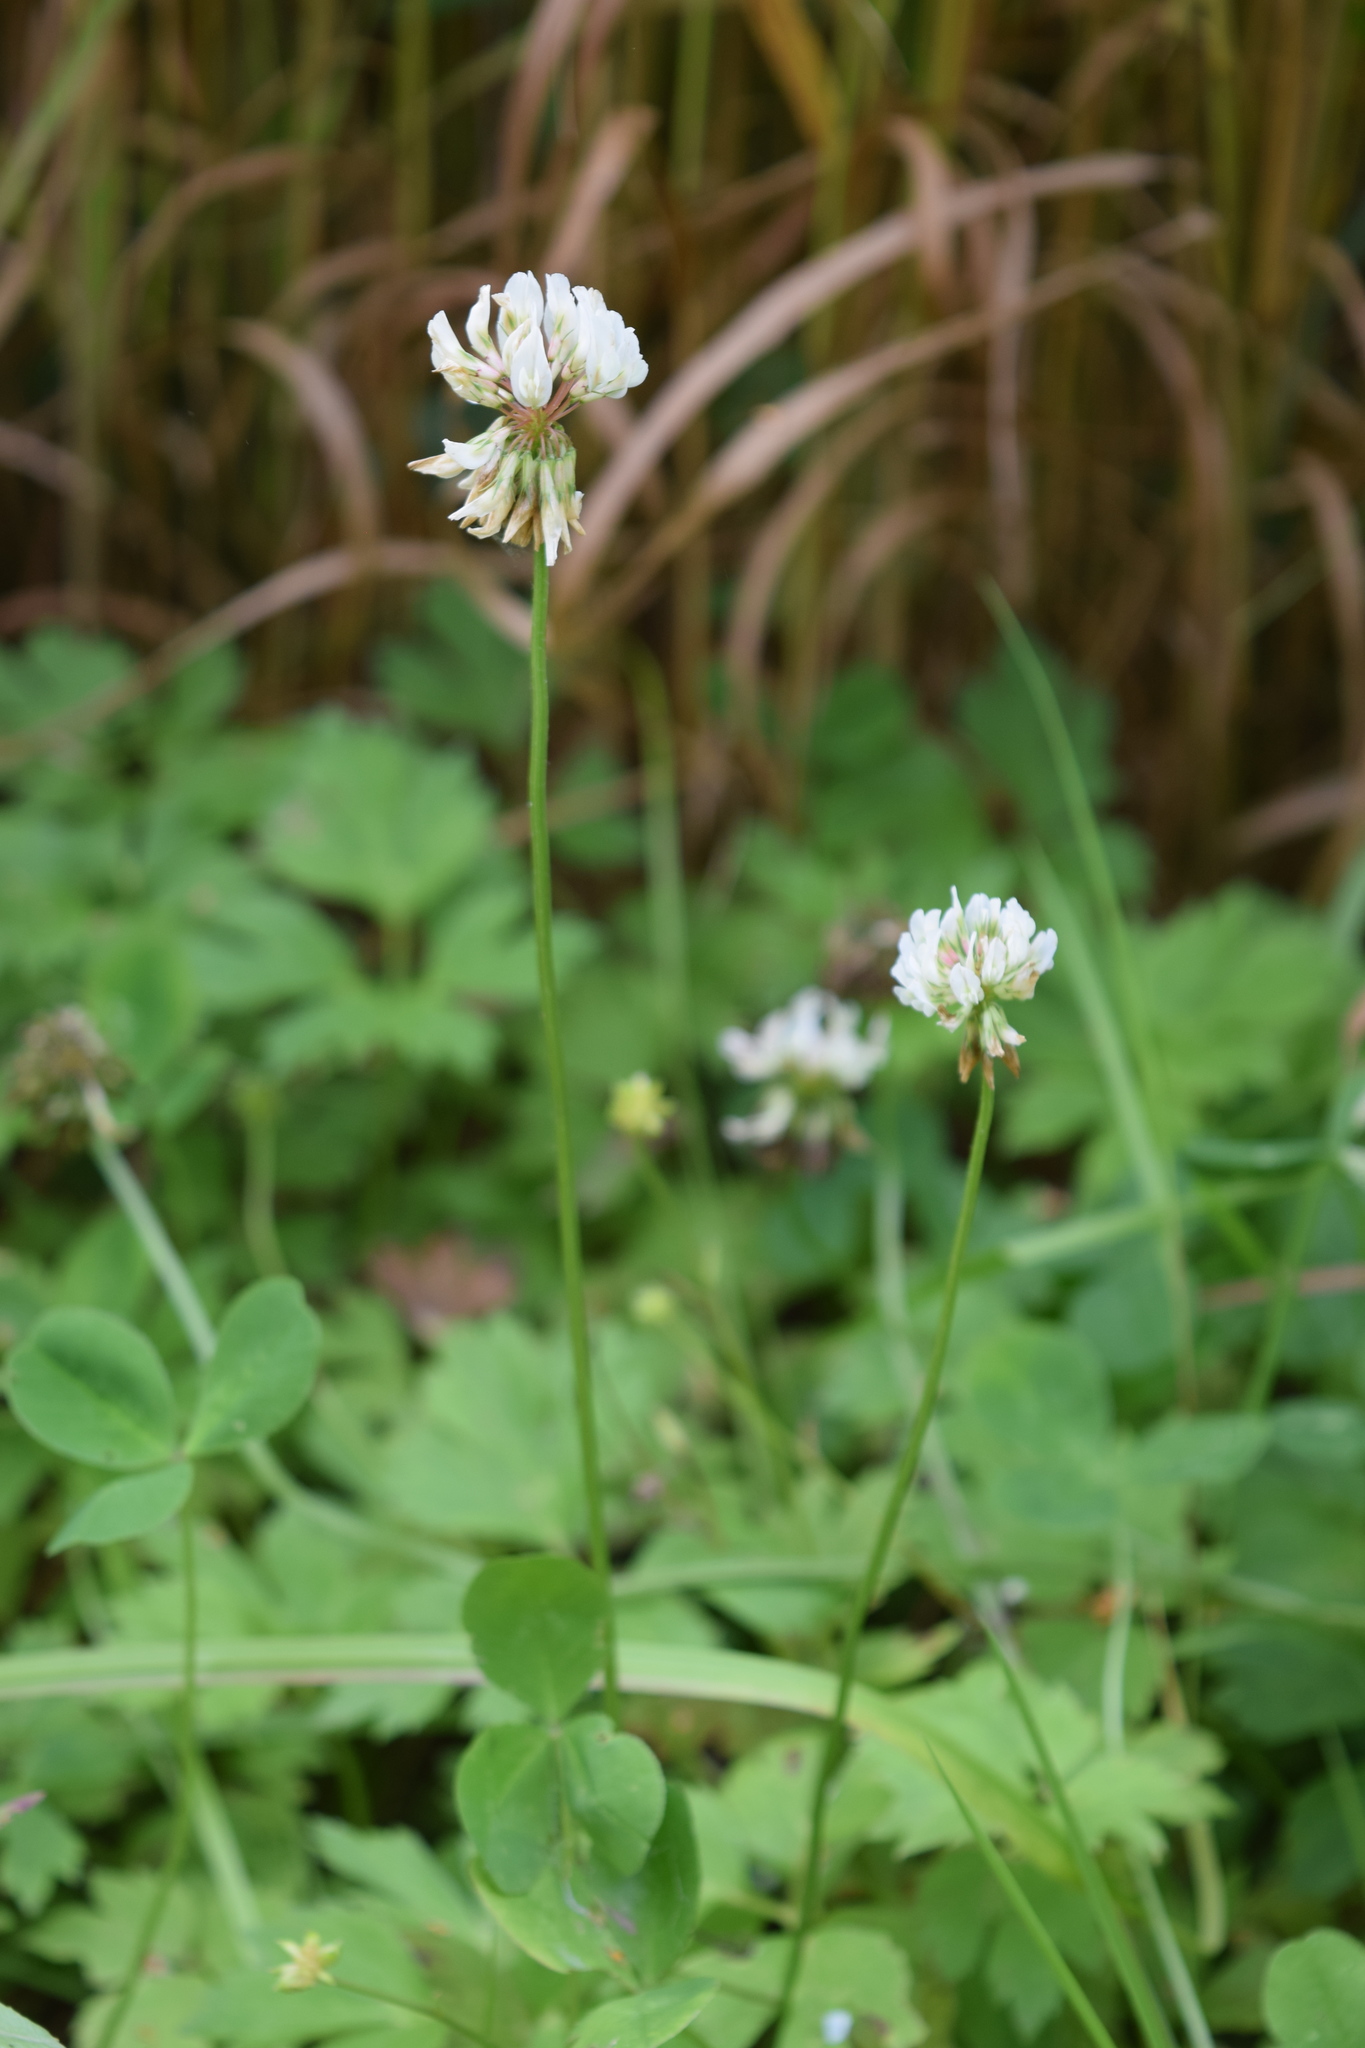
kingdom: Plantae
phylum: Tracheophyta
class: Magnoliopsida
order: Fabales
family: Fabaceae
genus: Trifolium
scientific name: Trifolium repens
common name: White clover
